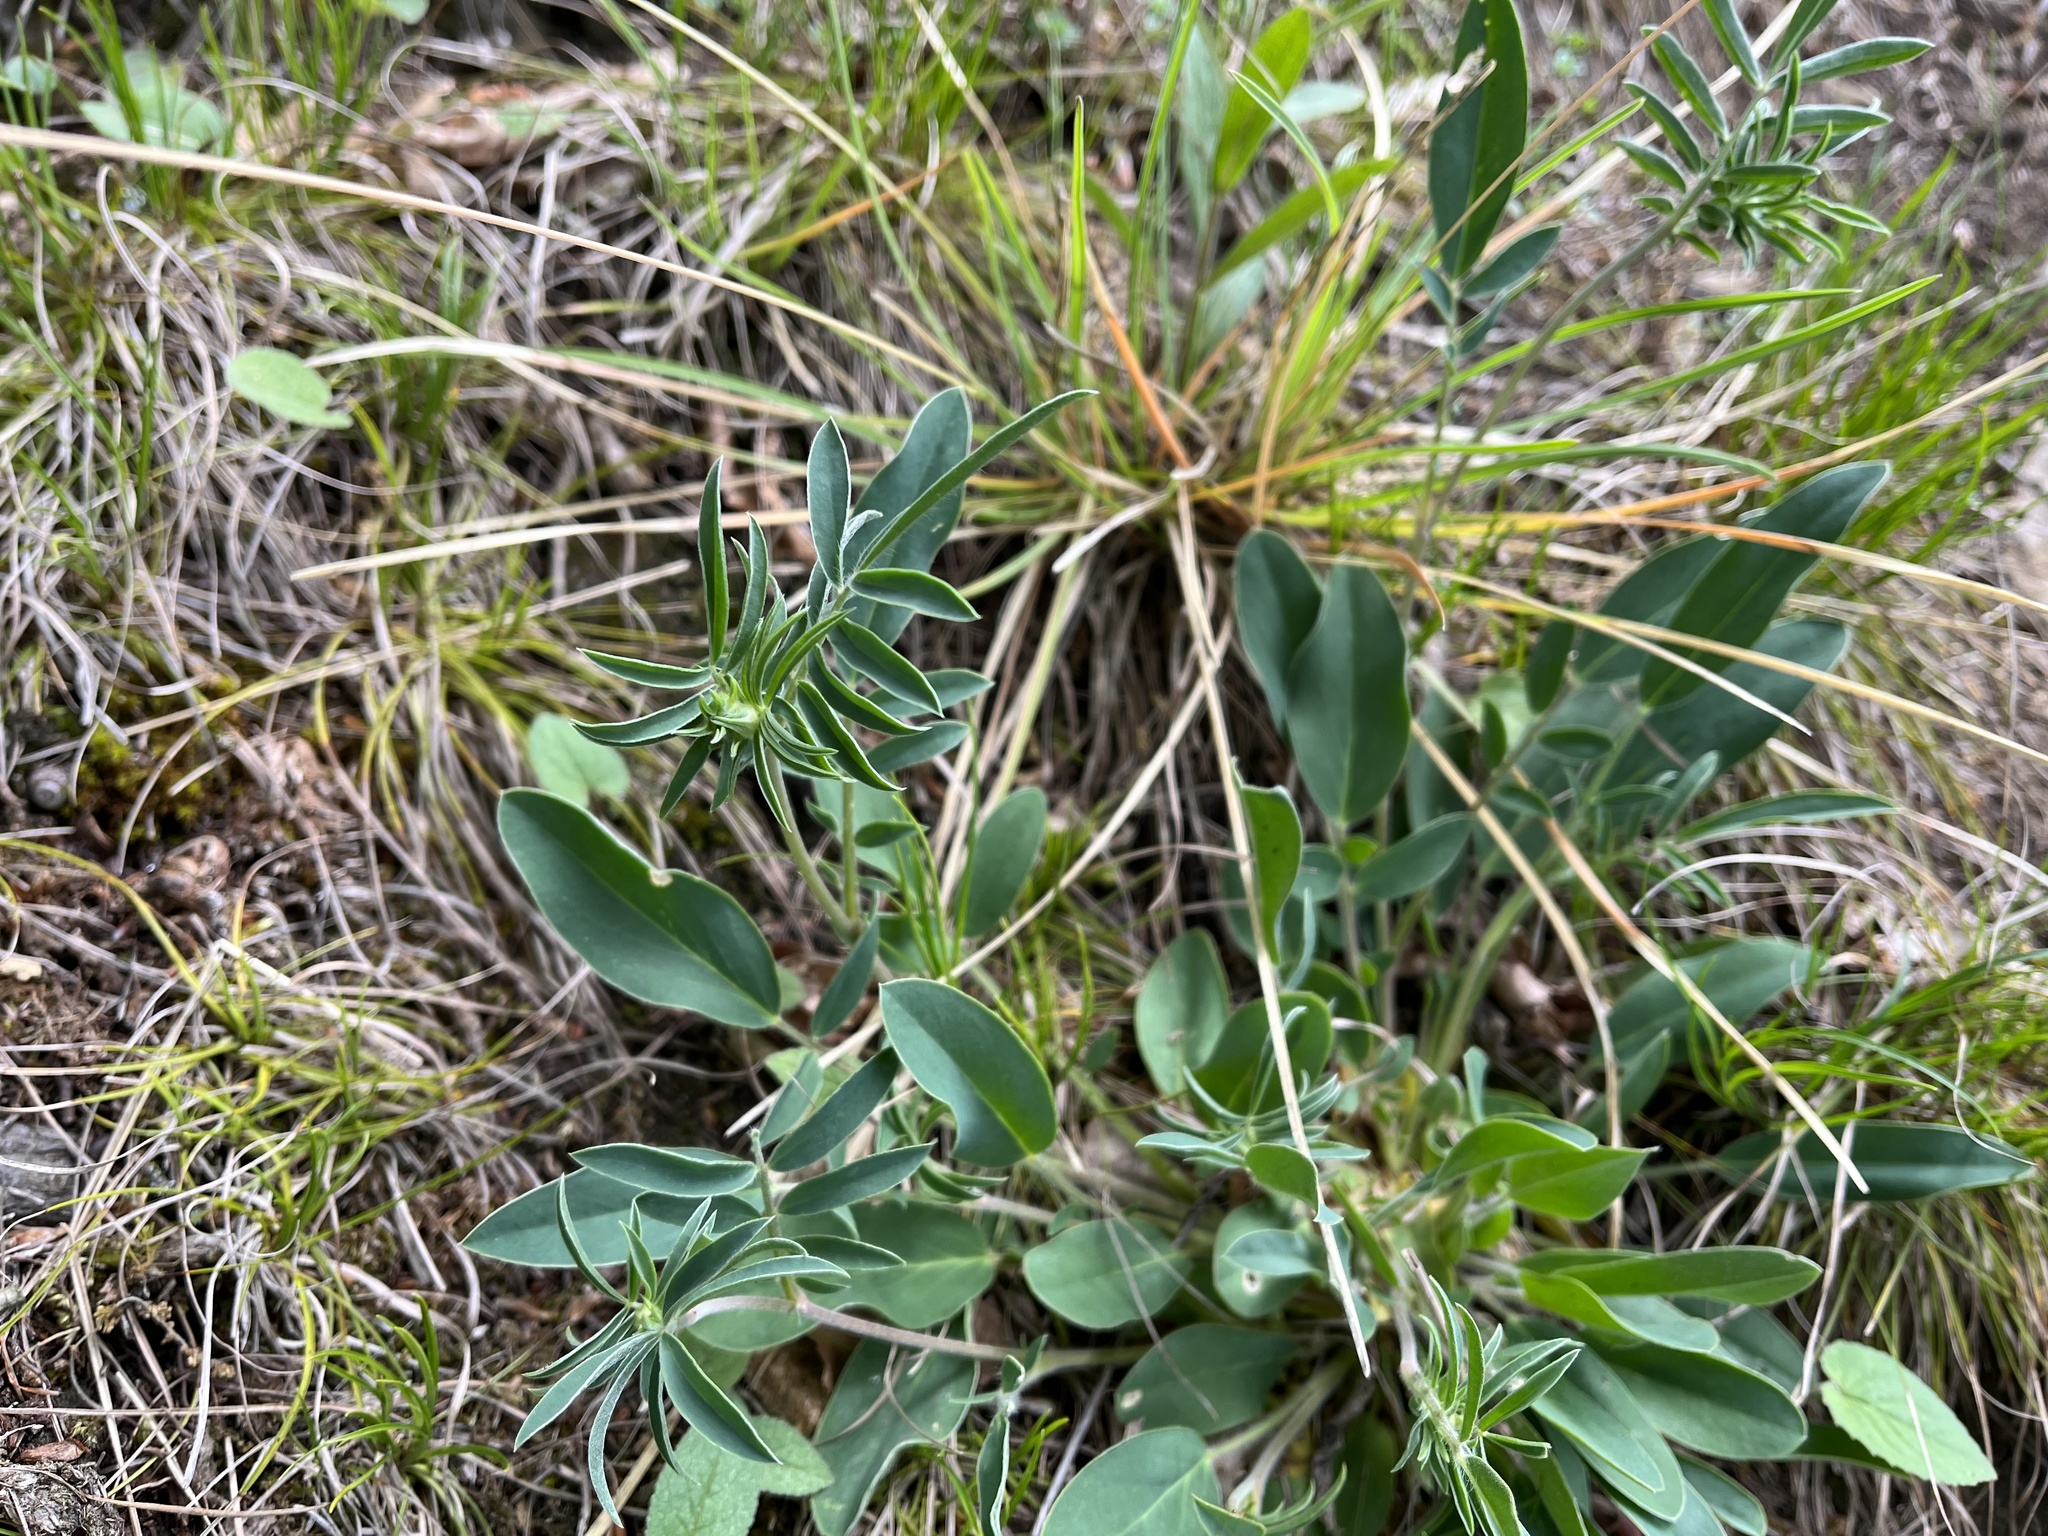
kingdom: Plantae
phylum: Tracheophyta
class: Magnoliopsida
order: Fabales
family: Fabaceae
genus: Anthyllis
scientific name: Anthyllis vulneraria
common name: Kidney vetch
